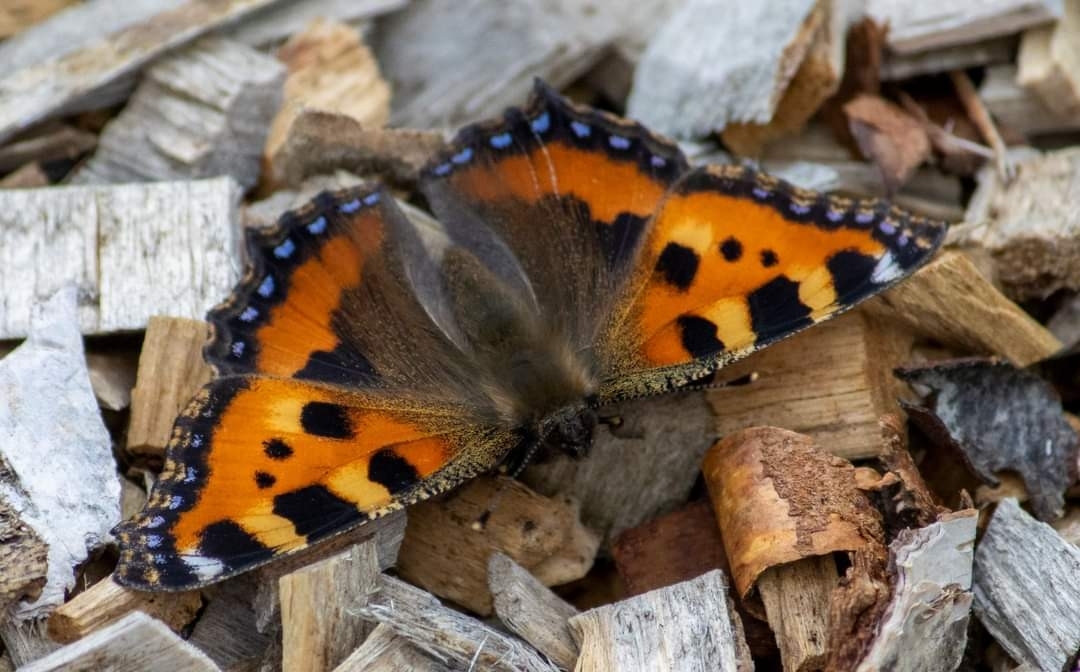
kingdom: Animalia
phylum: Arthropoda
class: Insecta
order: Lepidoptera
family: Nymphalidae
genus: Aglais
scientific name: Aglais urticae
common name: Small tortoiseshell
